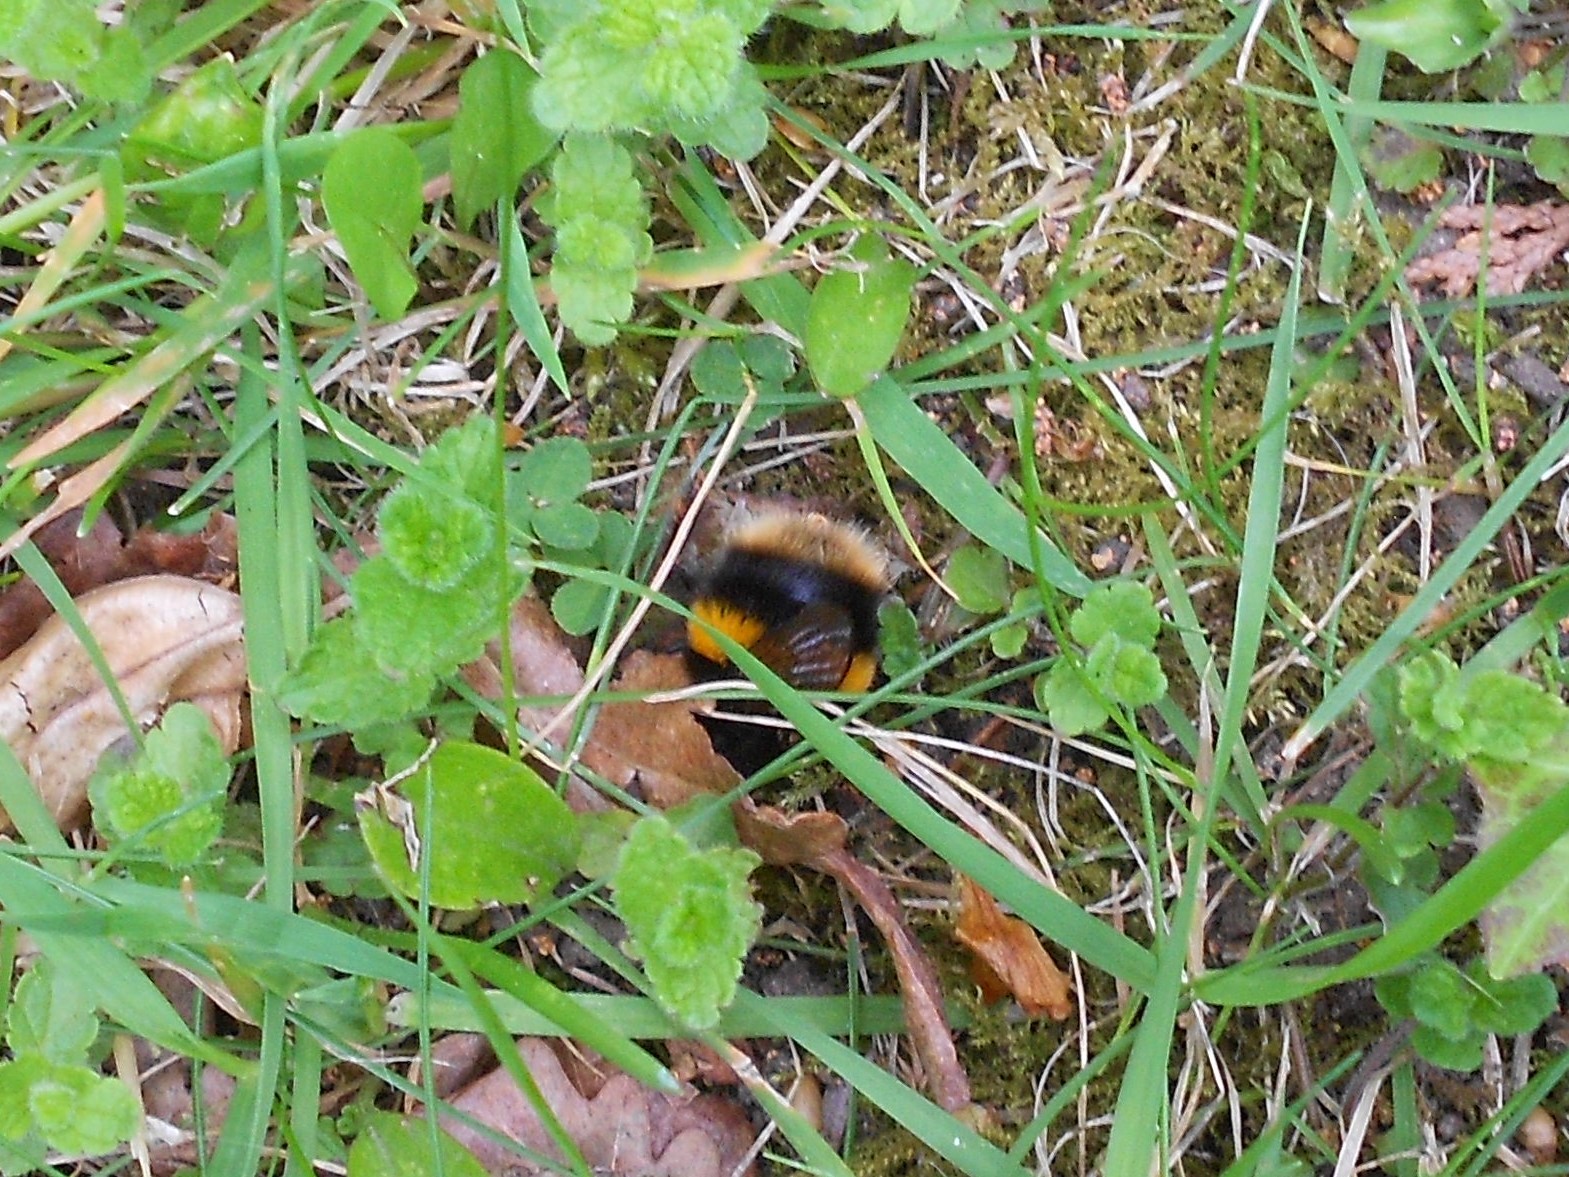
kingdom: Animalia
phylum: Arthropoda
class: Insecta
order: Hymenoptera
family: Apidae
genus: Bombus
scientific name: Bombus terrestris
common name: Buff-tailed bumblebee
